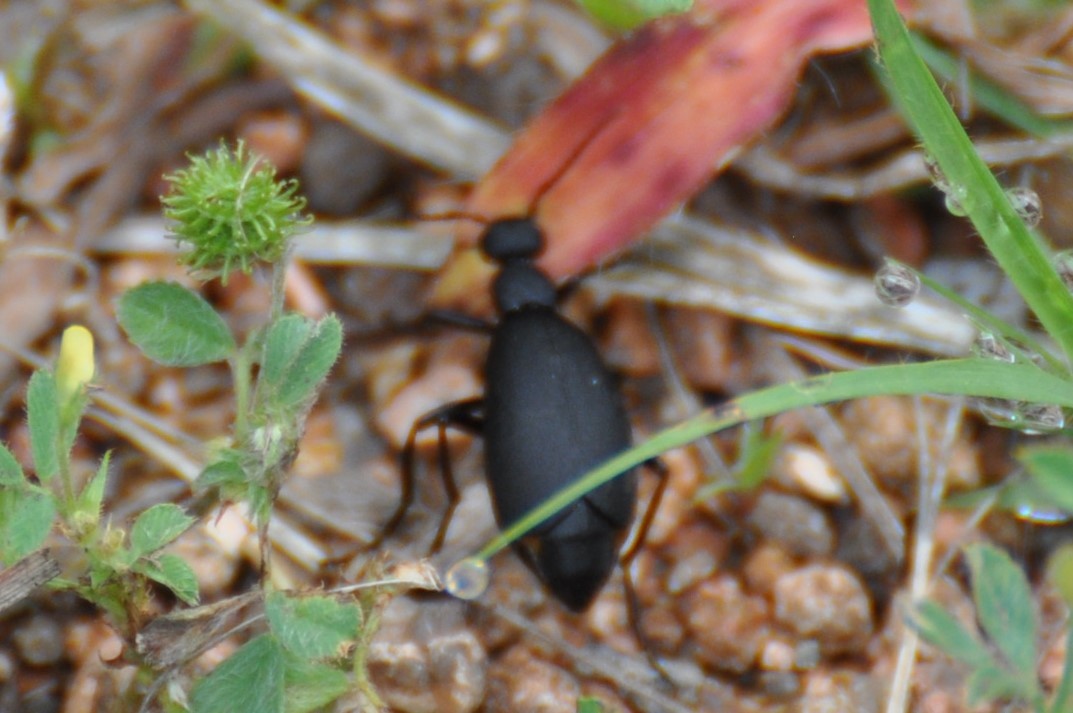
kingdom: Animalia
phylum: Arthropoda
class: Insecta
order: Coleoptera
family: Meloidae
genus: Epicauta
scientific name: Epicauta conferta
